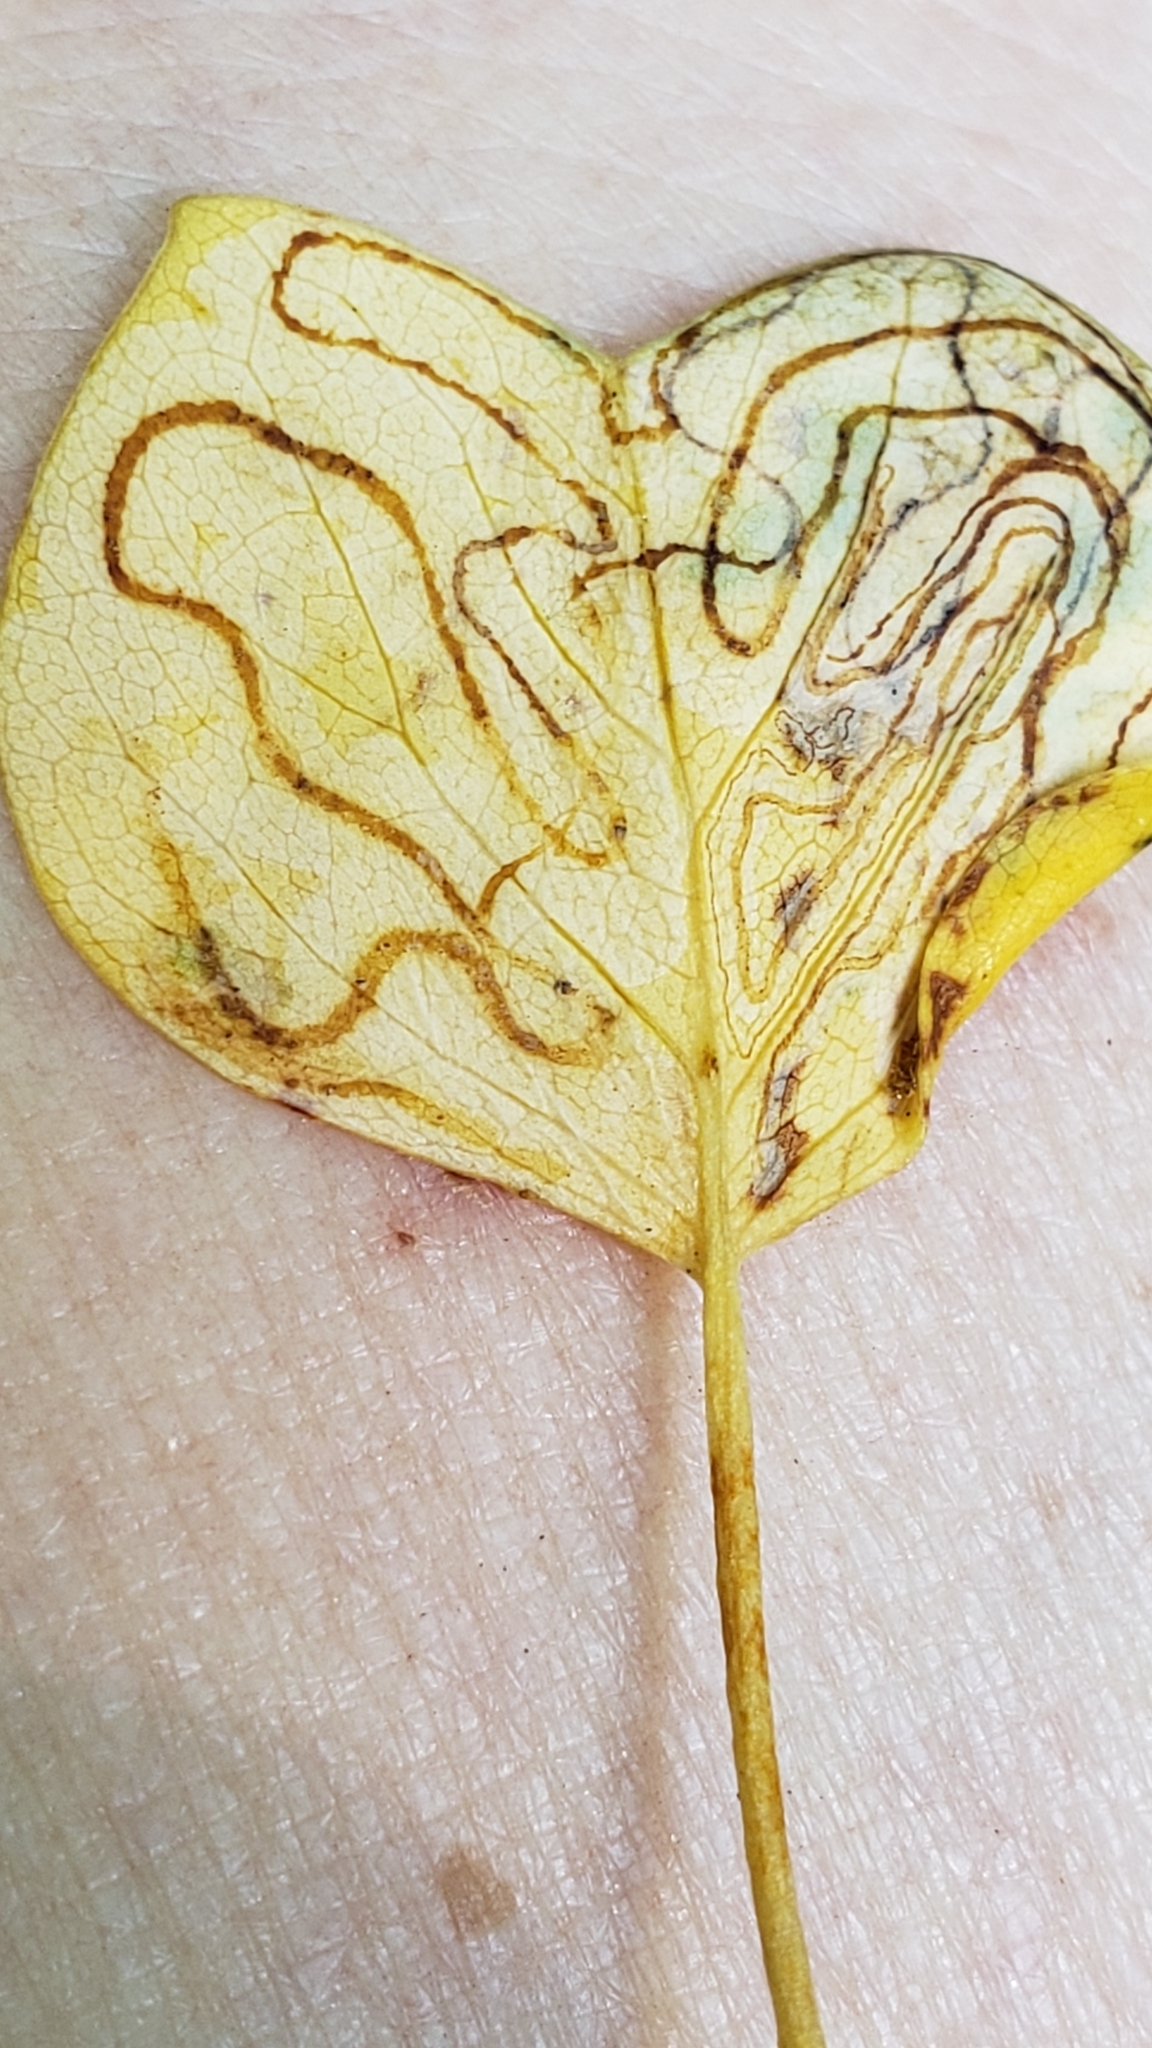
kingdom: Animalia
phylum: Arthropoda
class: Insecta
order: Lepidoptera
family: Gracillariidae
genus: Phyllocnistis
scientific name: Phyllocnistis liriodendronella
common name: Tulip tree leaf miner
